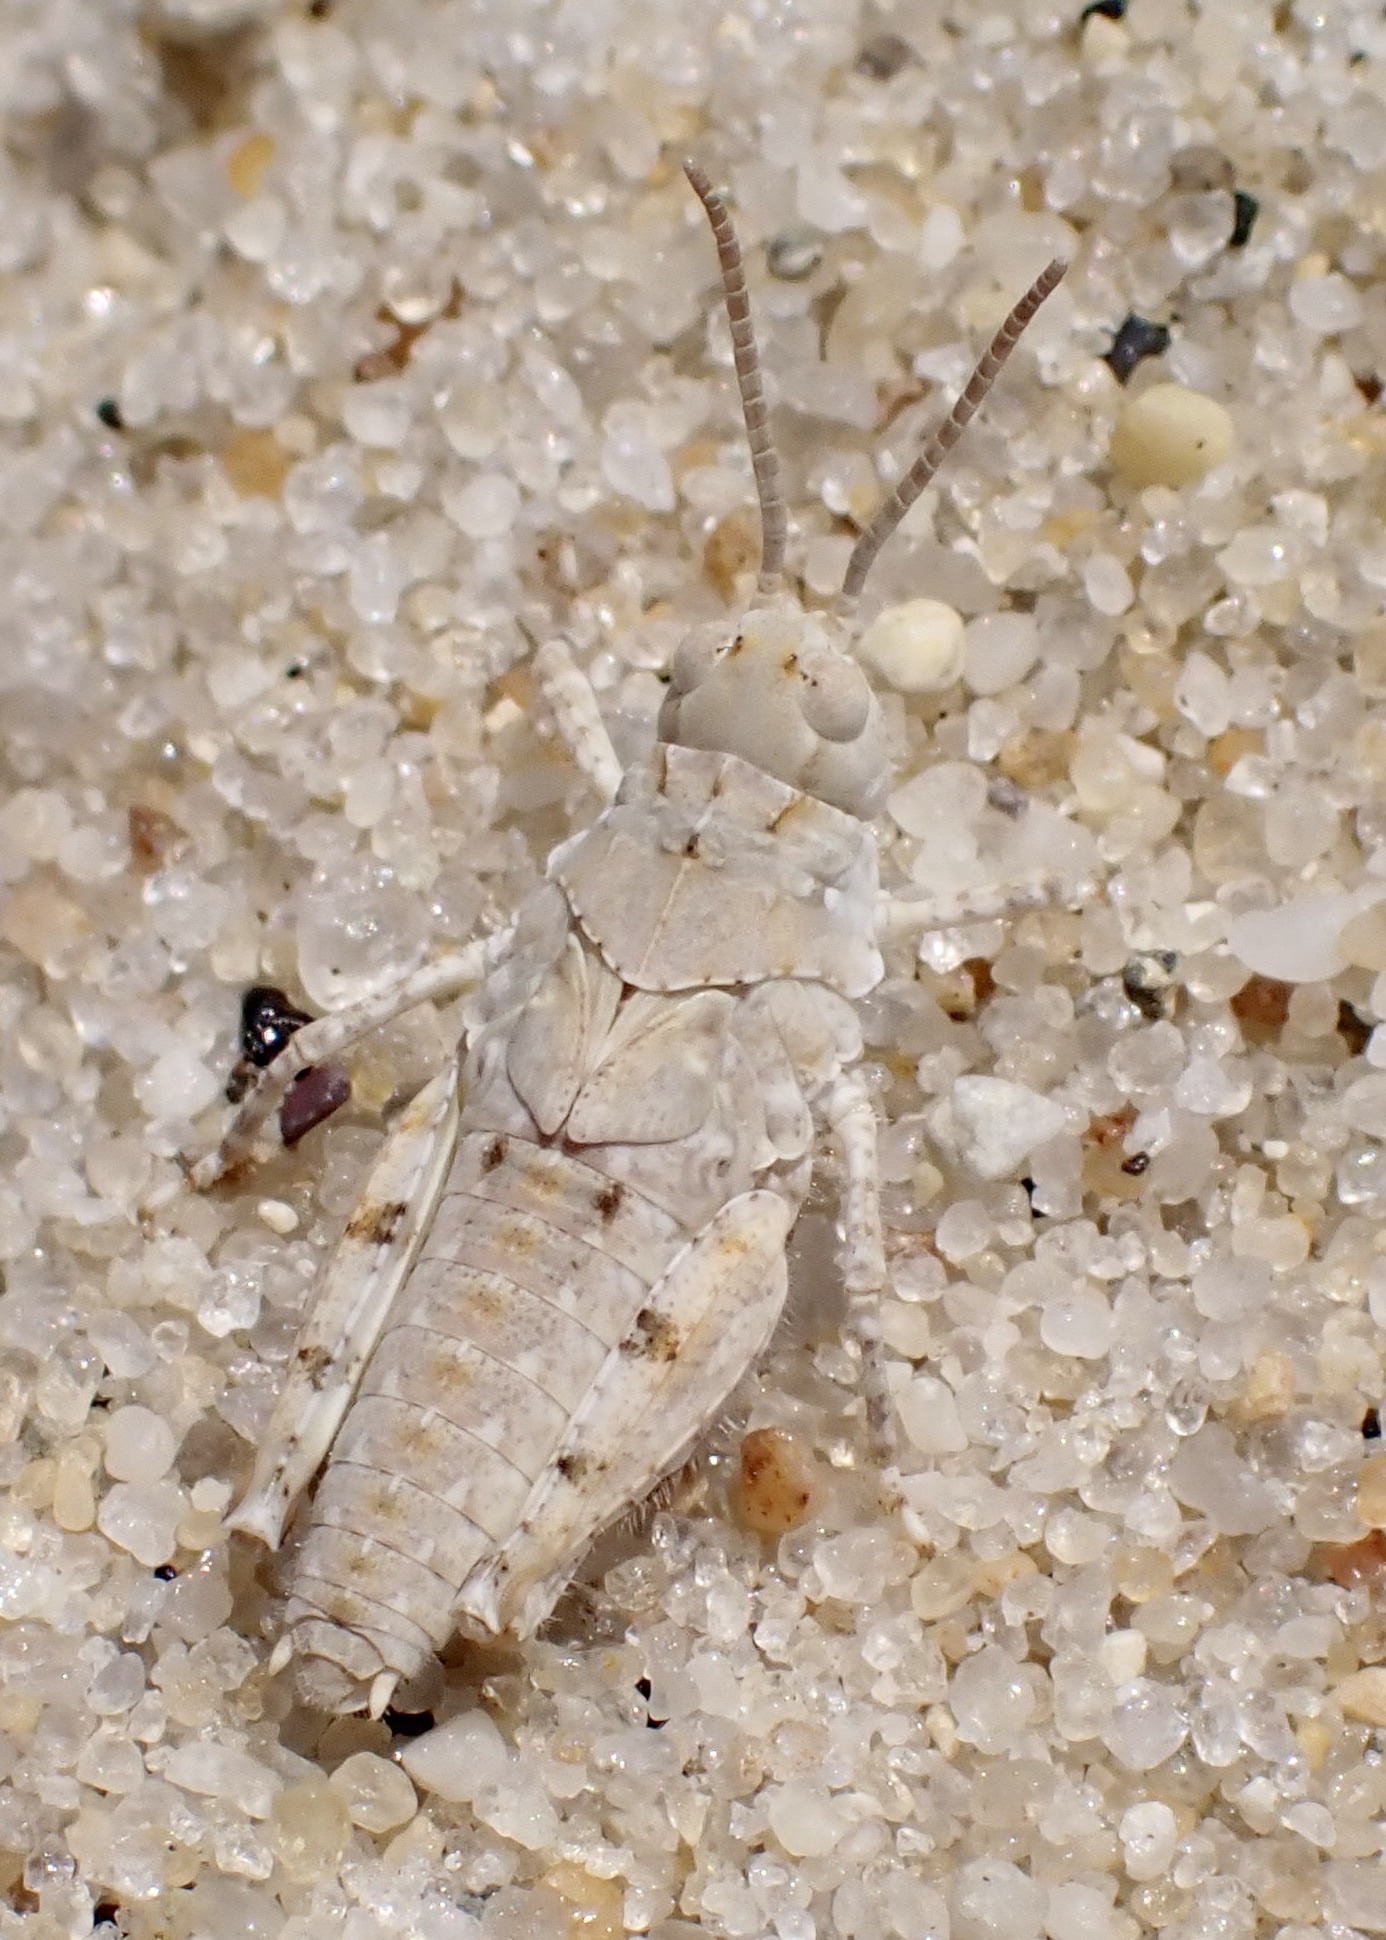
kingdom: Animalia
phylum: Arthropoda
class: Insecta
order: Orthoptera
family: Acrididae
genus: Trimerotropis
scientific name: Trimerotropis maritima
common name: Seaside locust
